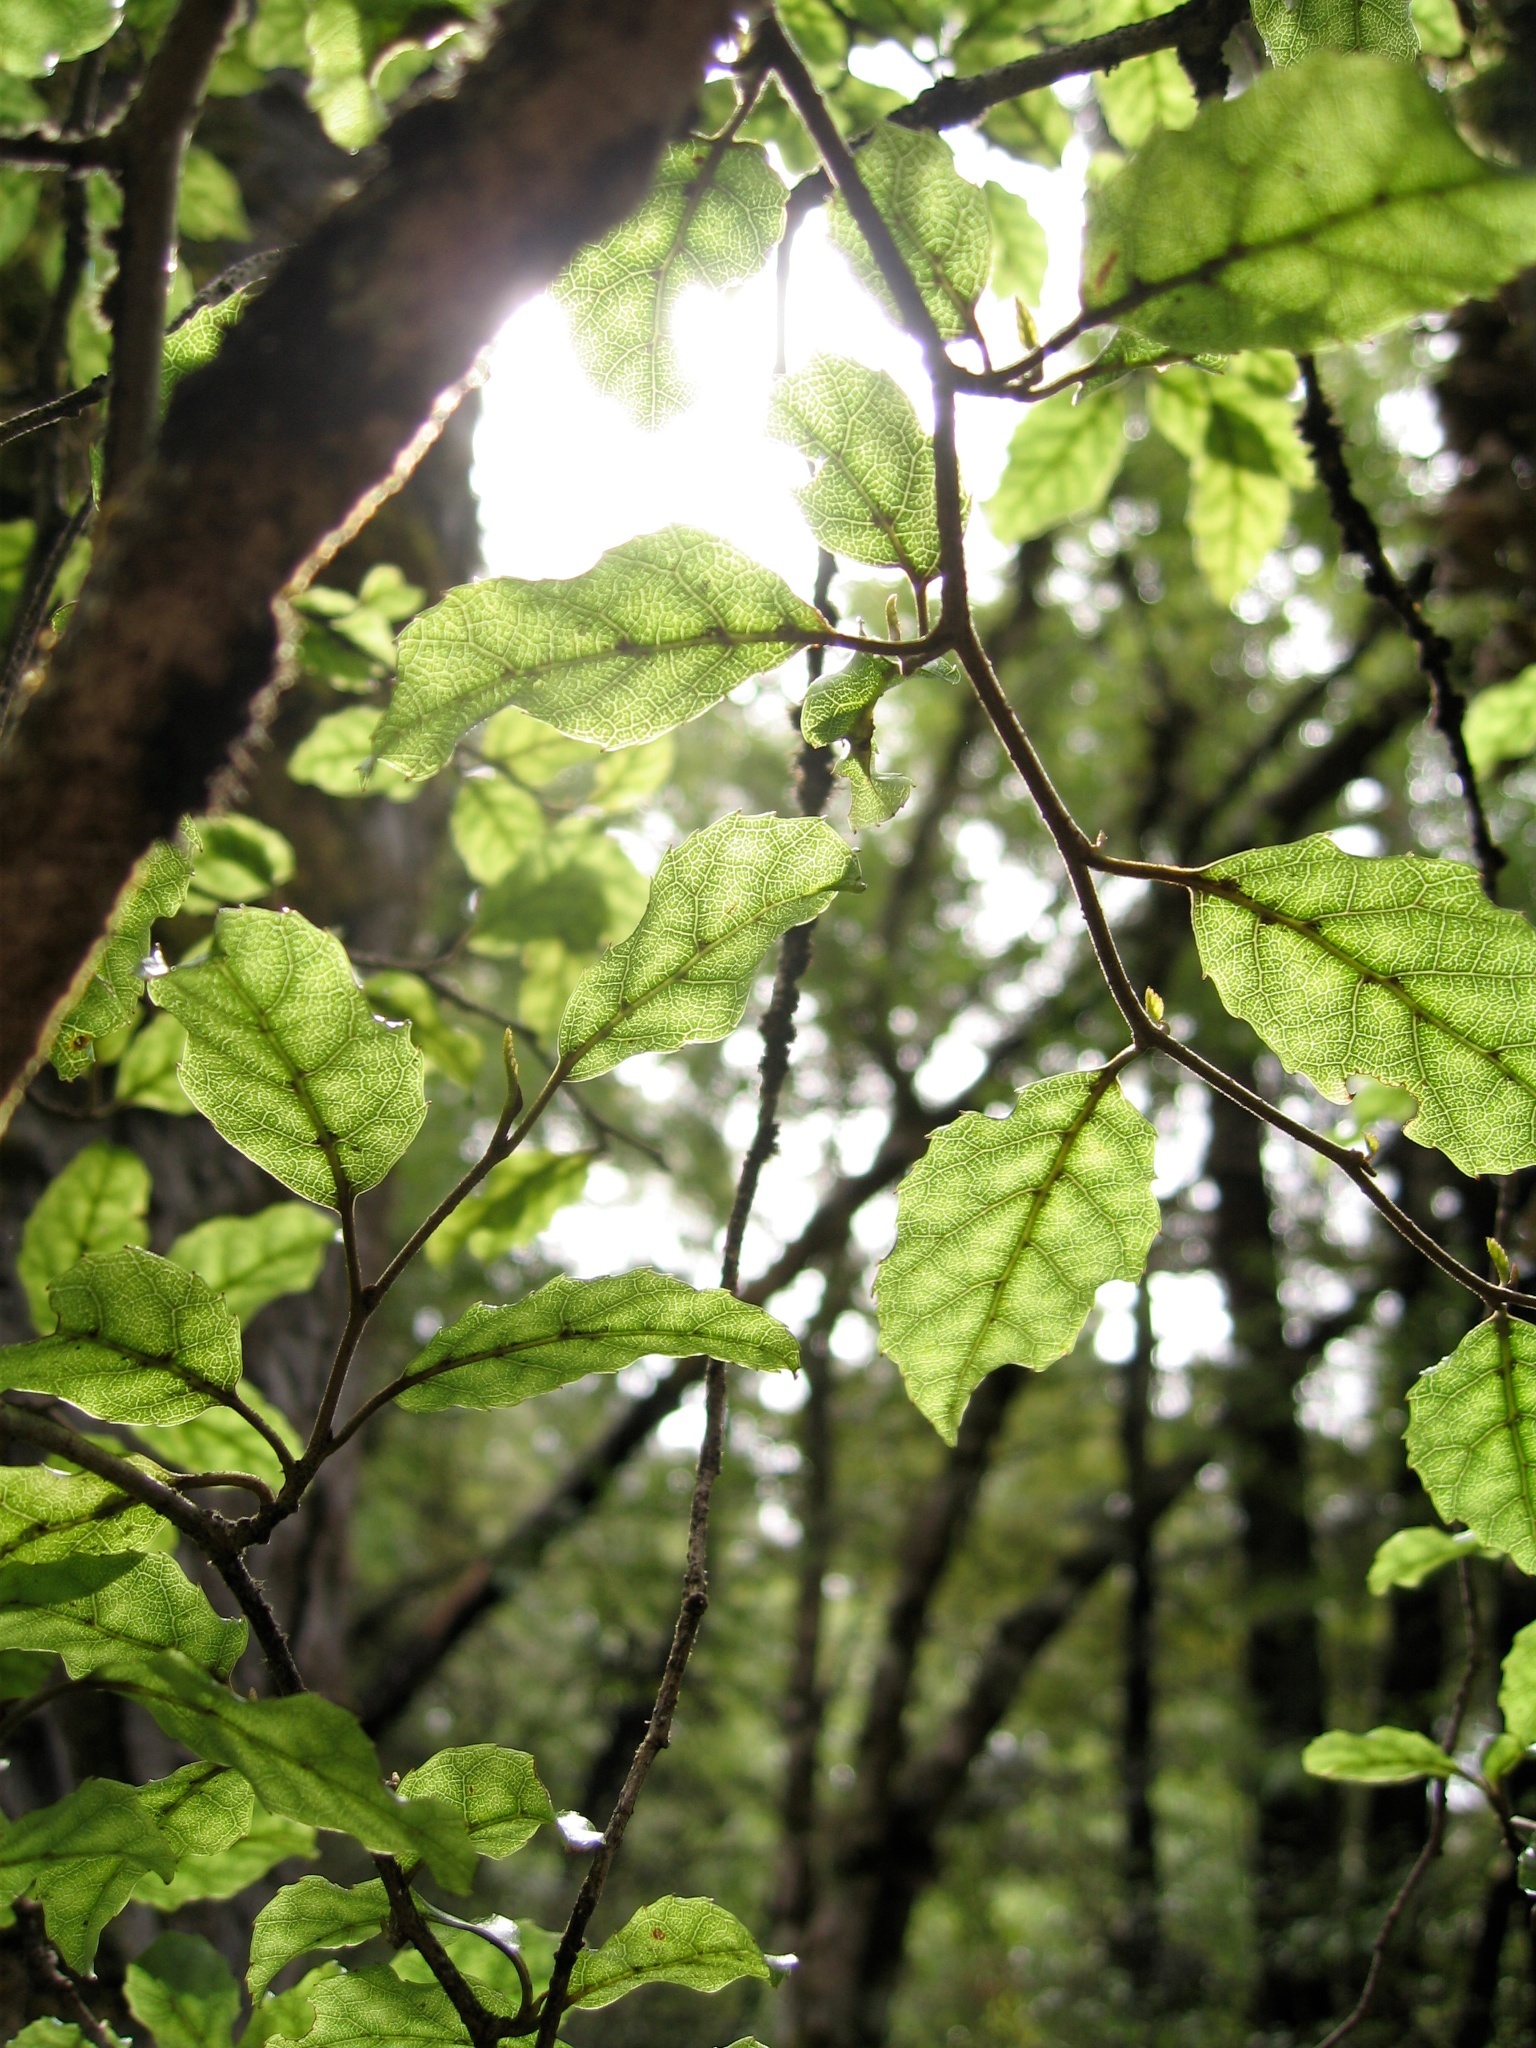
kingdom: Plantae
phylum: Tracheophyta
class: Magnoliopsida
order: Asterales
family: Rousseaceae
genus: Carpodetus
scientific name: Carpodetus serratus
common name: White mapau
